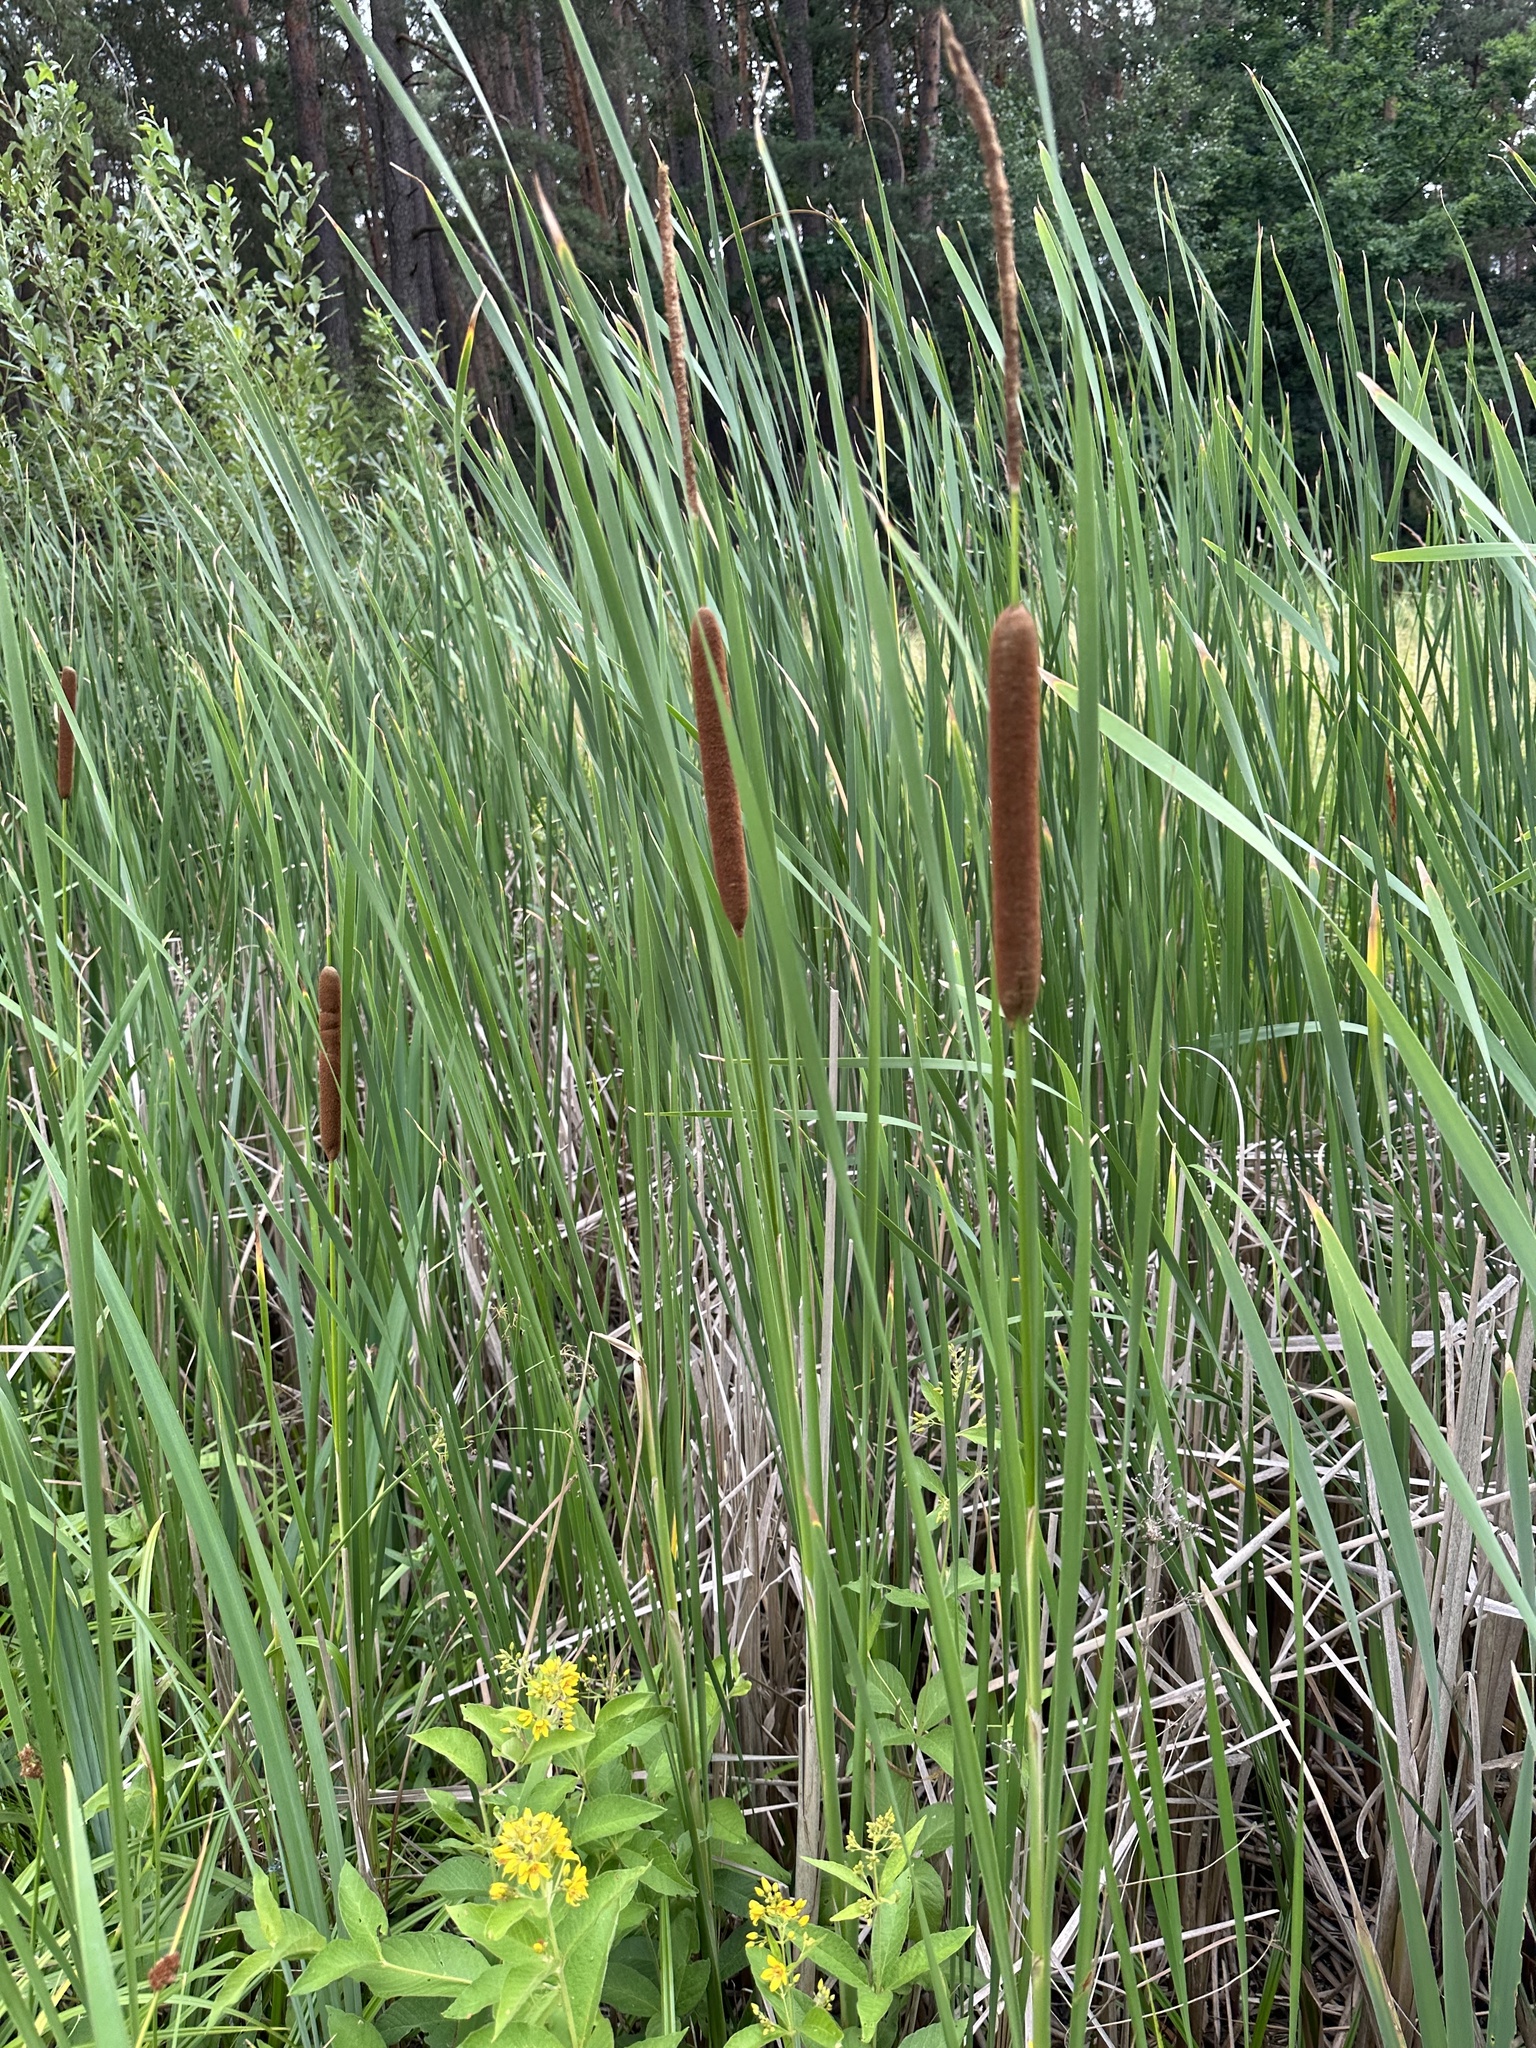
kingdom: Plantae
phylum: Tracheophyta
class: Liliopsida
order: Poales
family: Typhaceae
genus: Typha
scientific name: Typha angustifolia
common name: Lesser bulrush
